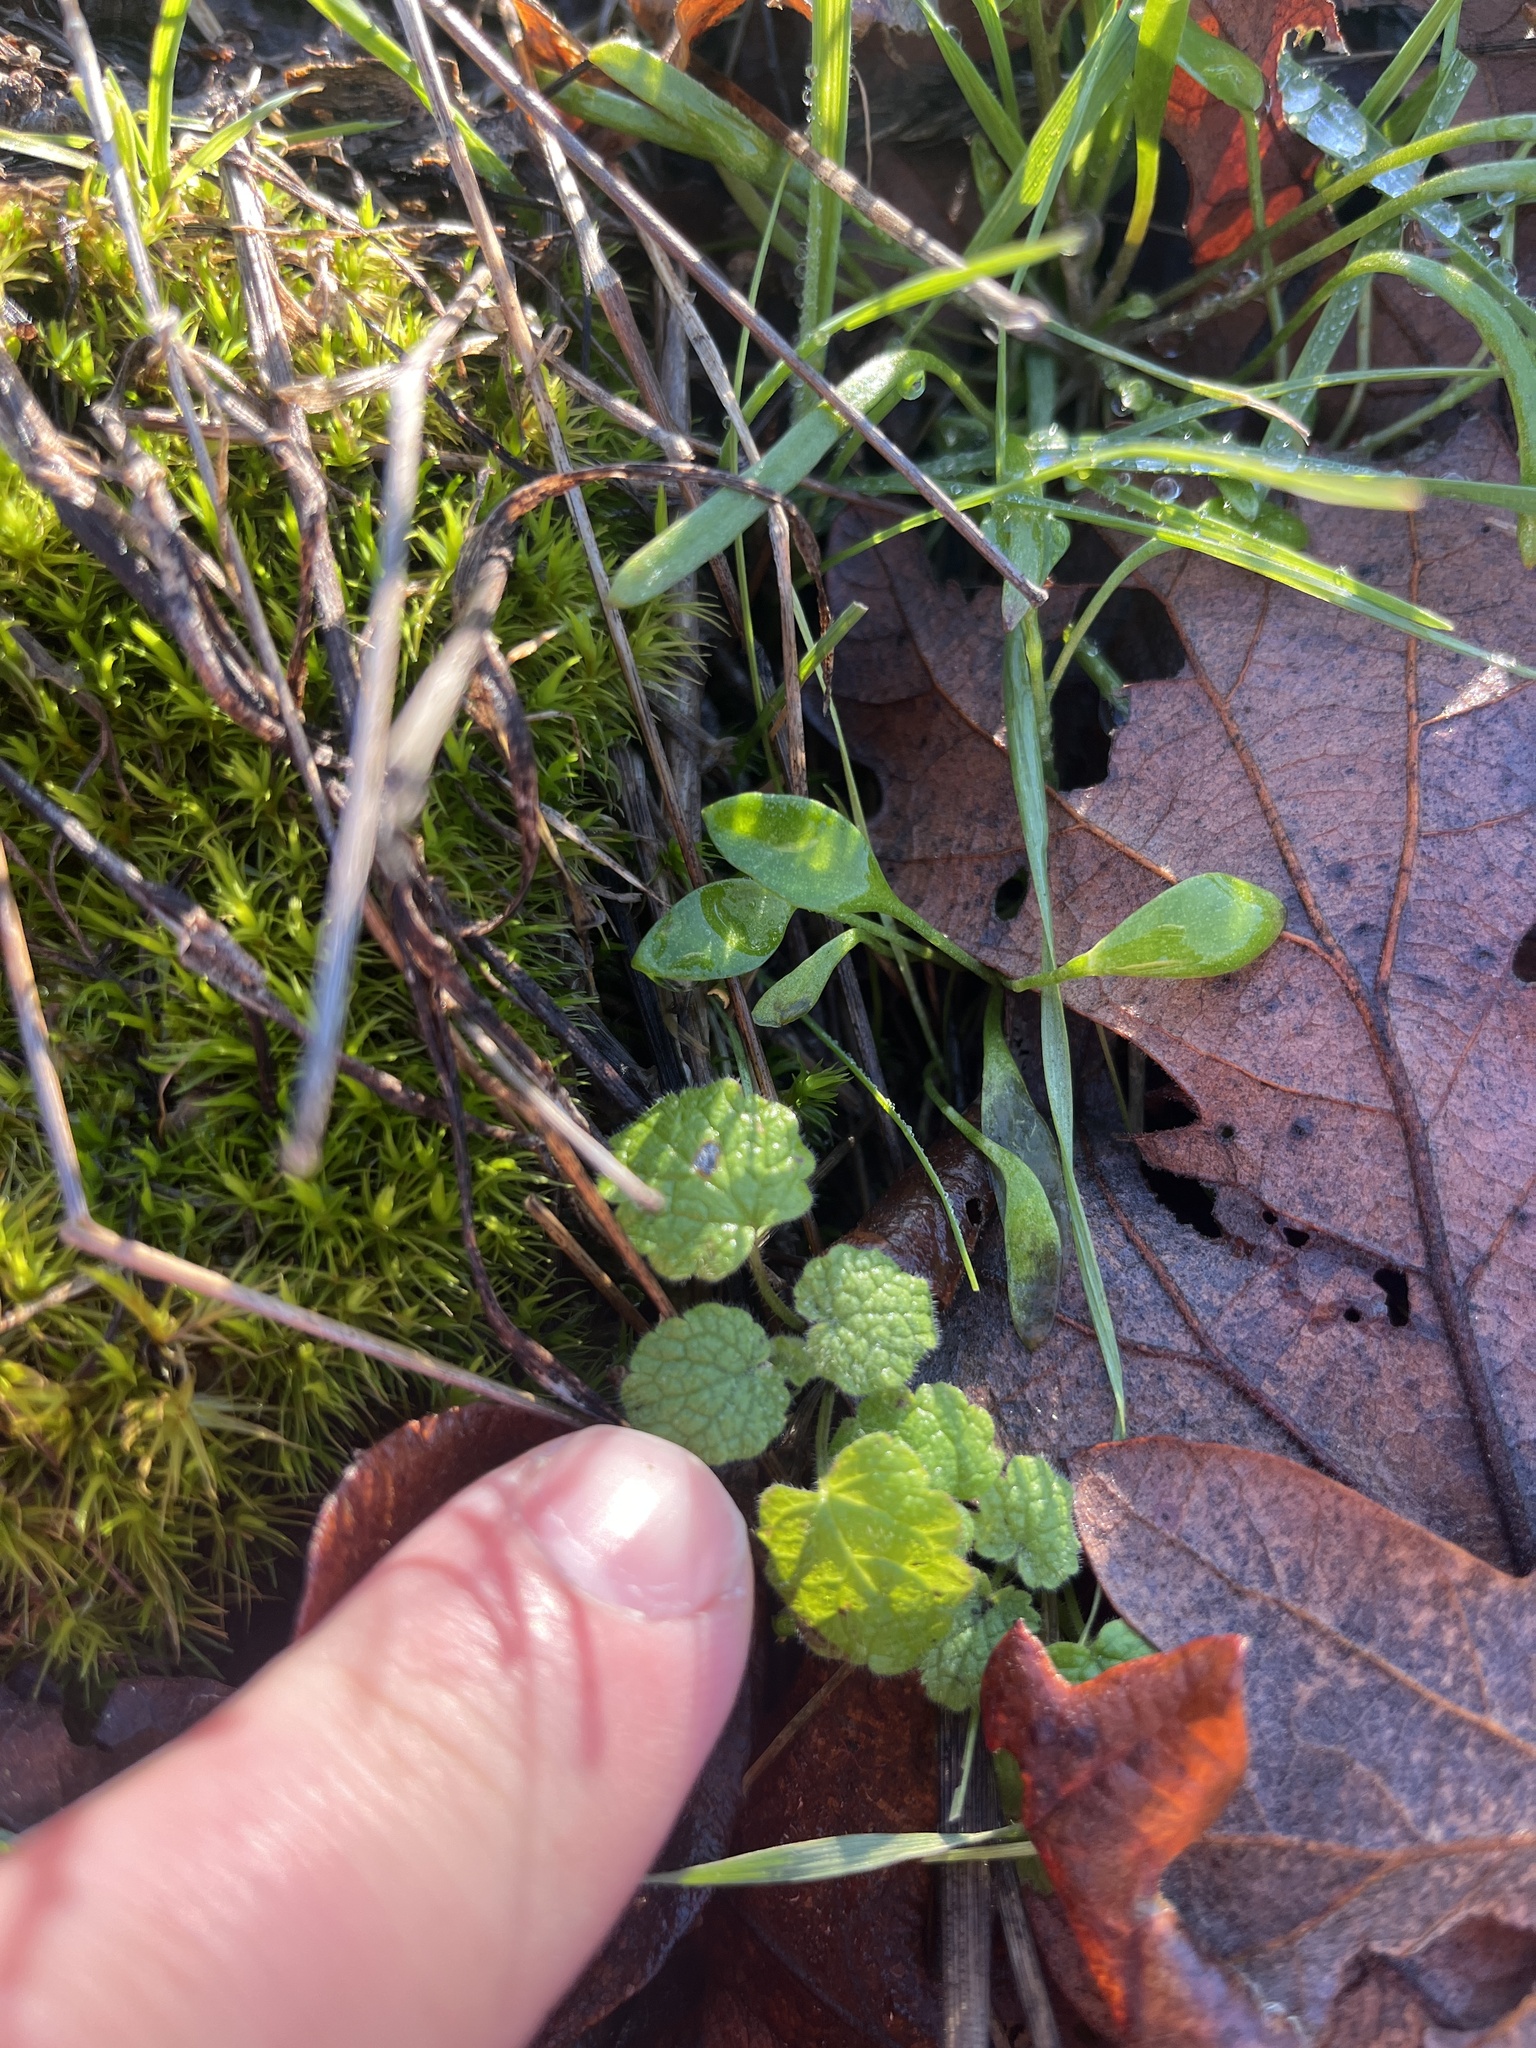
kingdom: Plantae
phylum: Tracheophyta
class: Magnoliopsida
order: Lamiales
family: Lamiaceae
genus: Lamium
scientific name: Lamium purpureum
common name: Red dead-nettle
